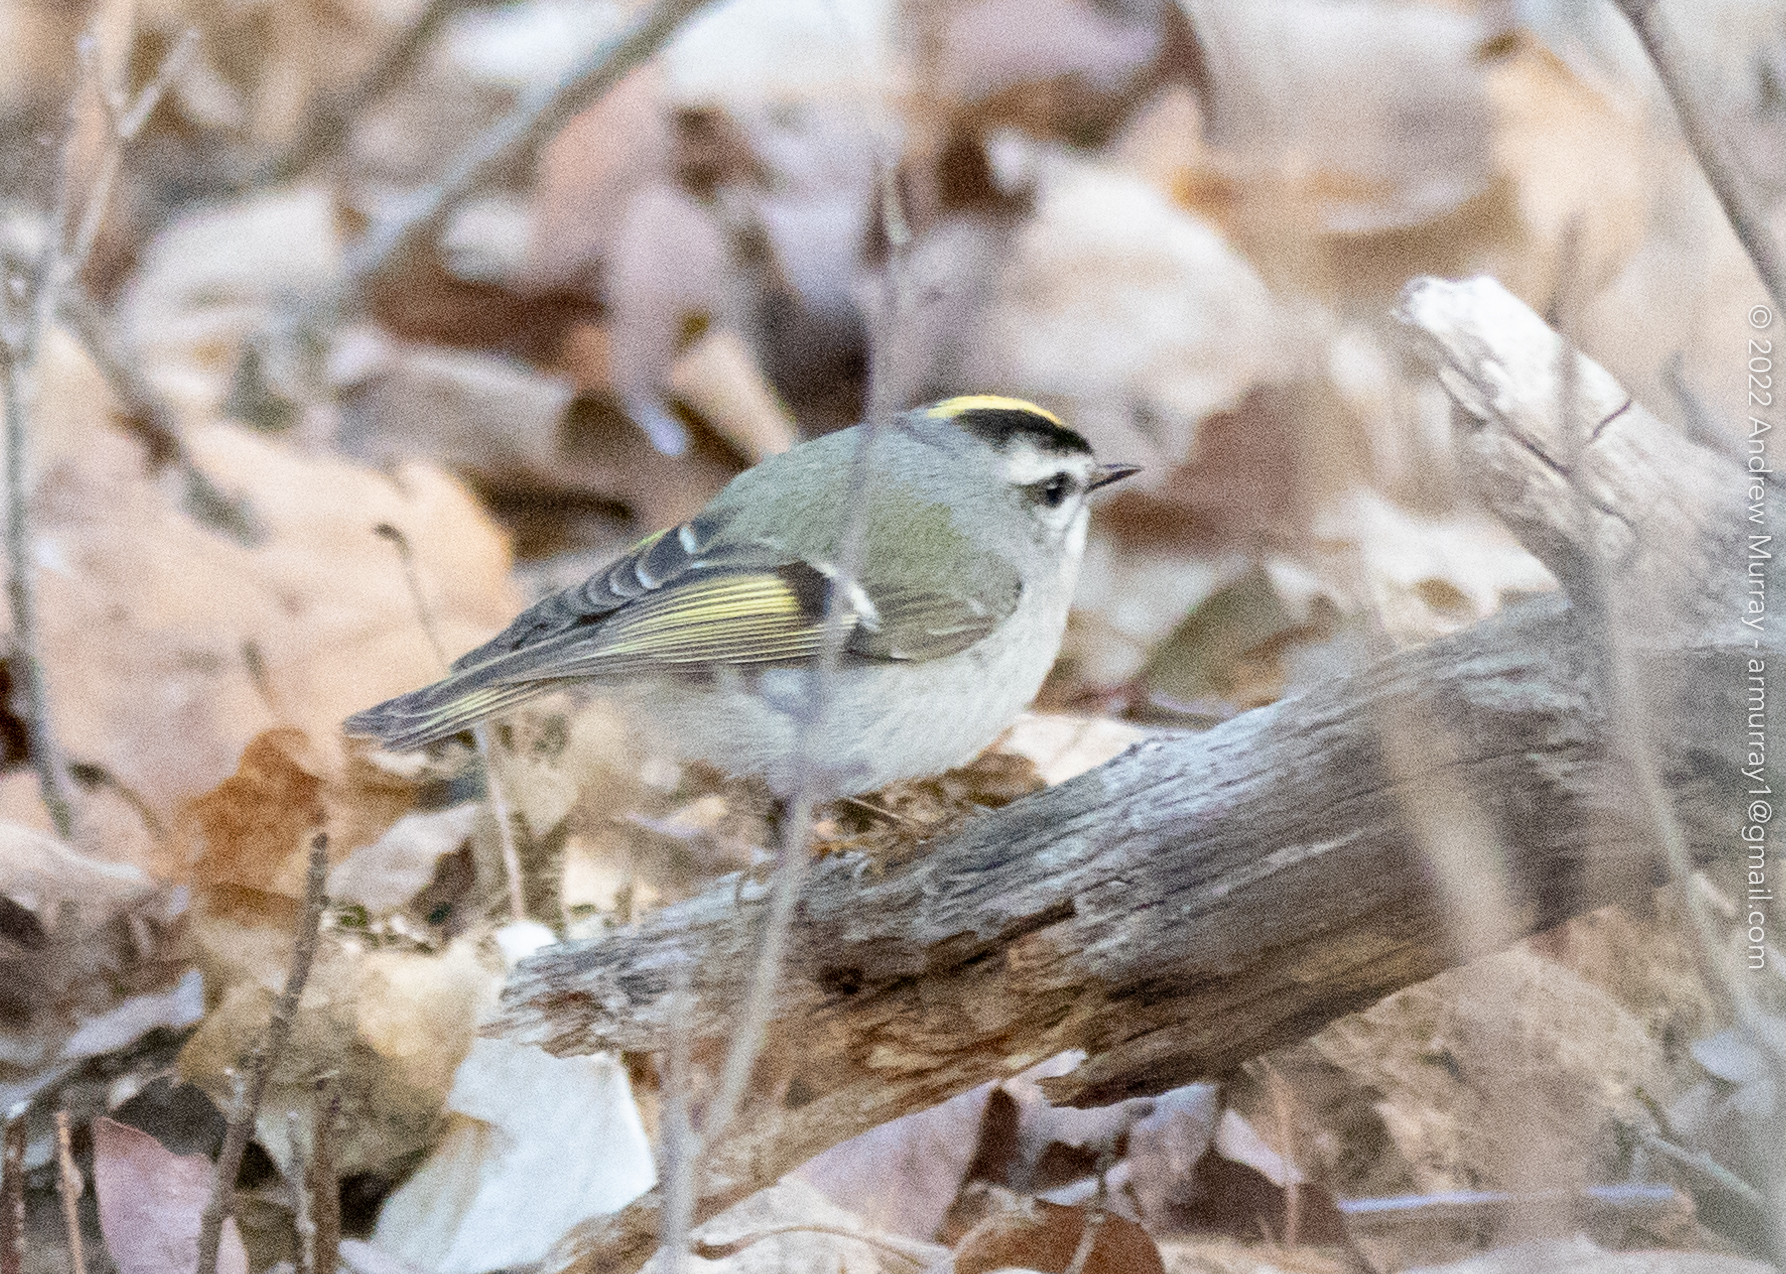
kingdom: Animalia
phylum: Chordata
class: Aves
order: Passeriformes
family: Regulidae
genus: Regulus
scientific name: Regulus satrapa
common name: Golden-crowned kinglet
